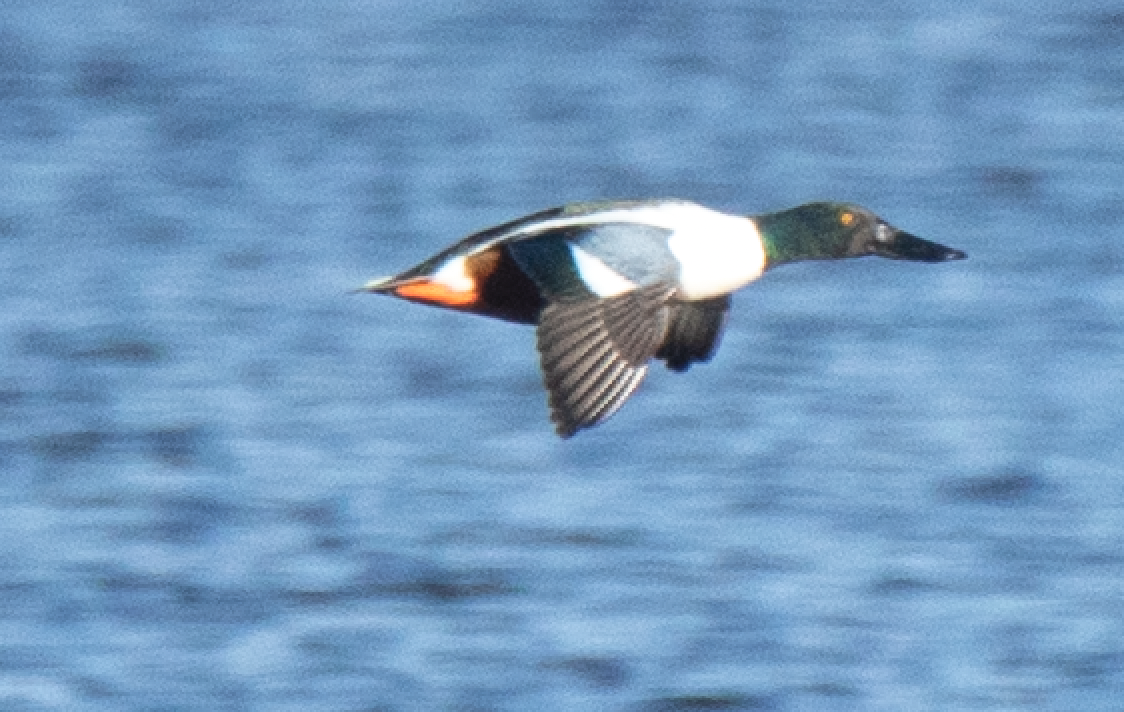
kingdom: Animalia
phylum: Chordata
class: Aves
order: Anseriformes
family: Anatidae
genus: Spatula
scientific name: Spatula clypeata
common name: Northern shoveler
